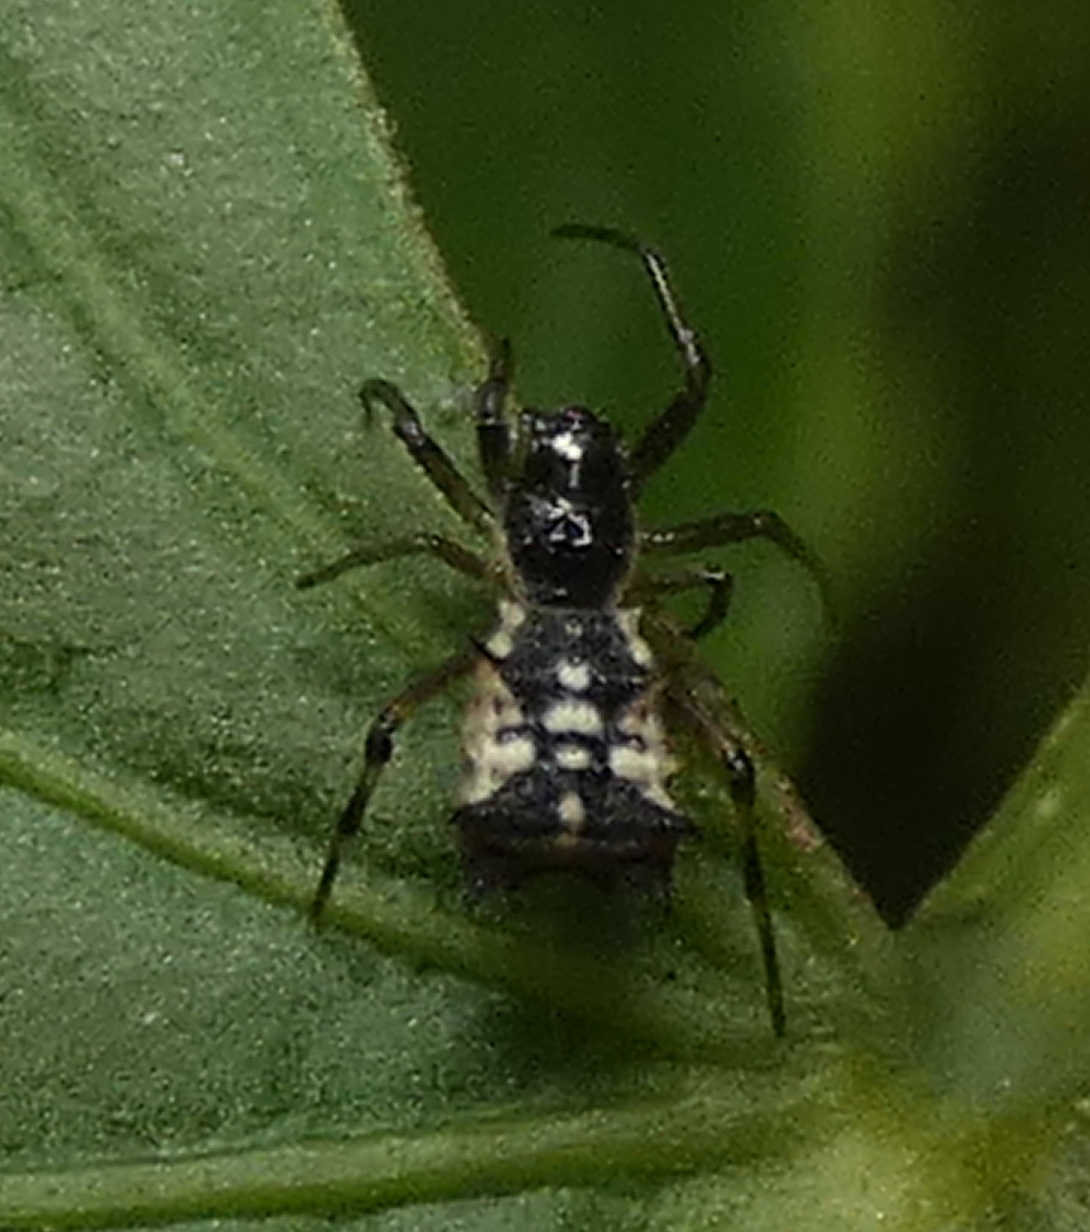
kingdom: Animalia
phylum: Arthropoda
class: Arachnida
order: Araneae
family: Araneidae
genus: Micrathena
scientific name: Micrathena picta
